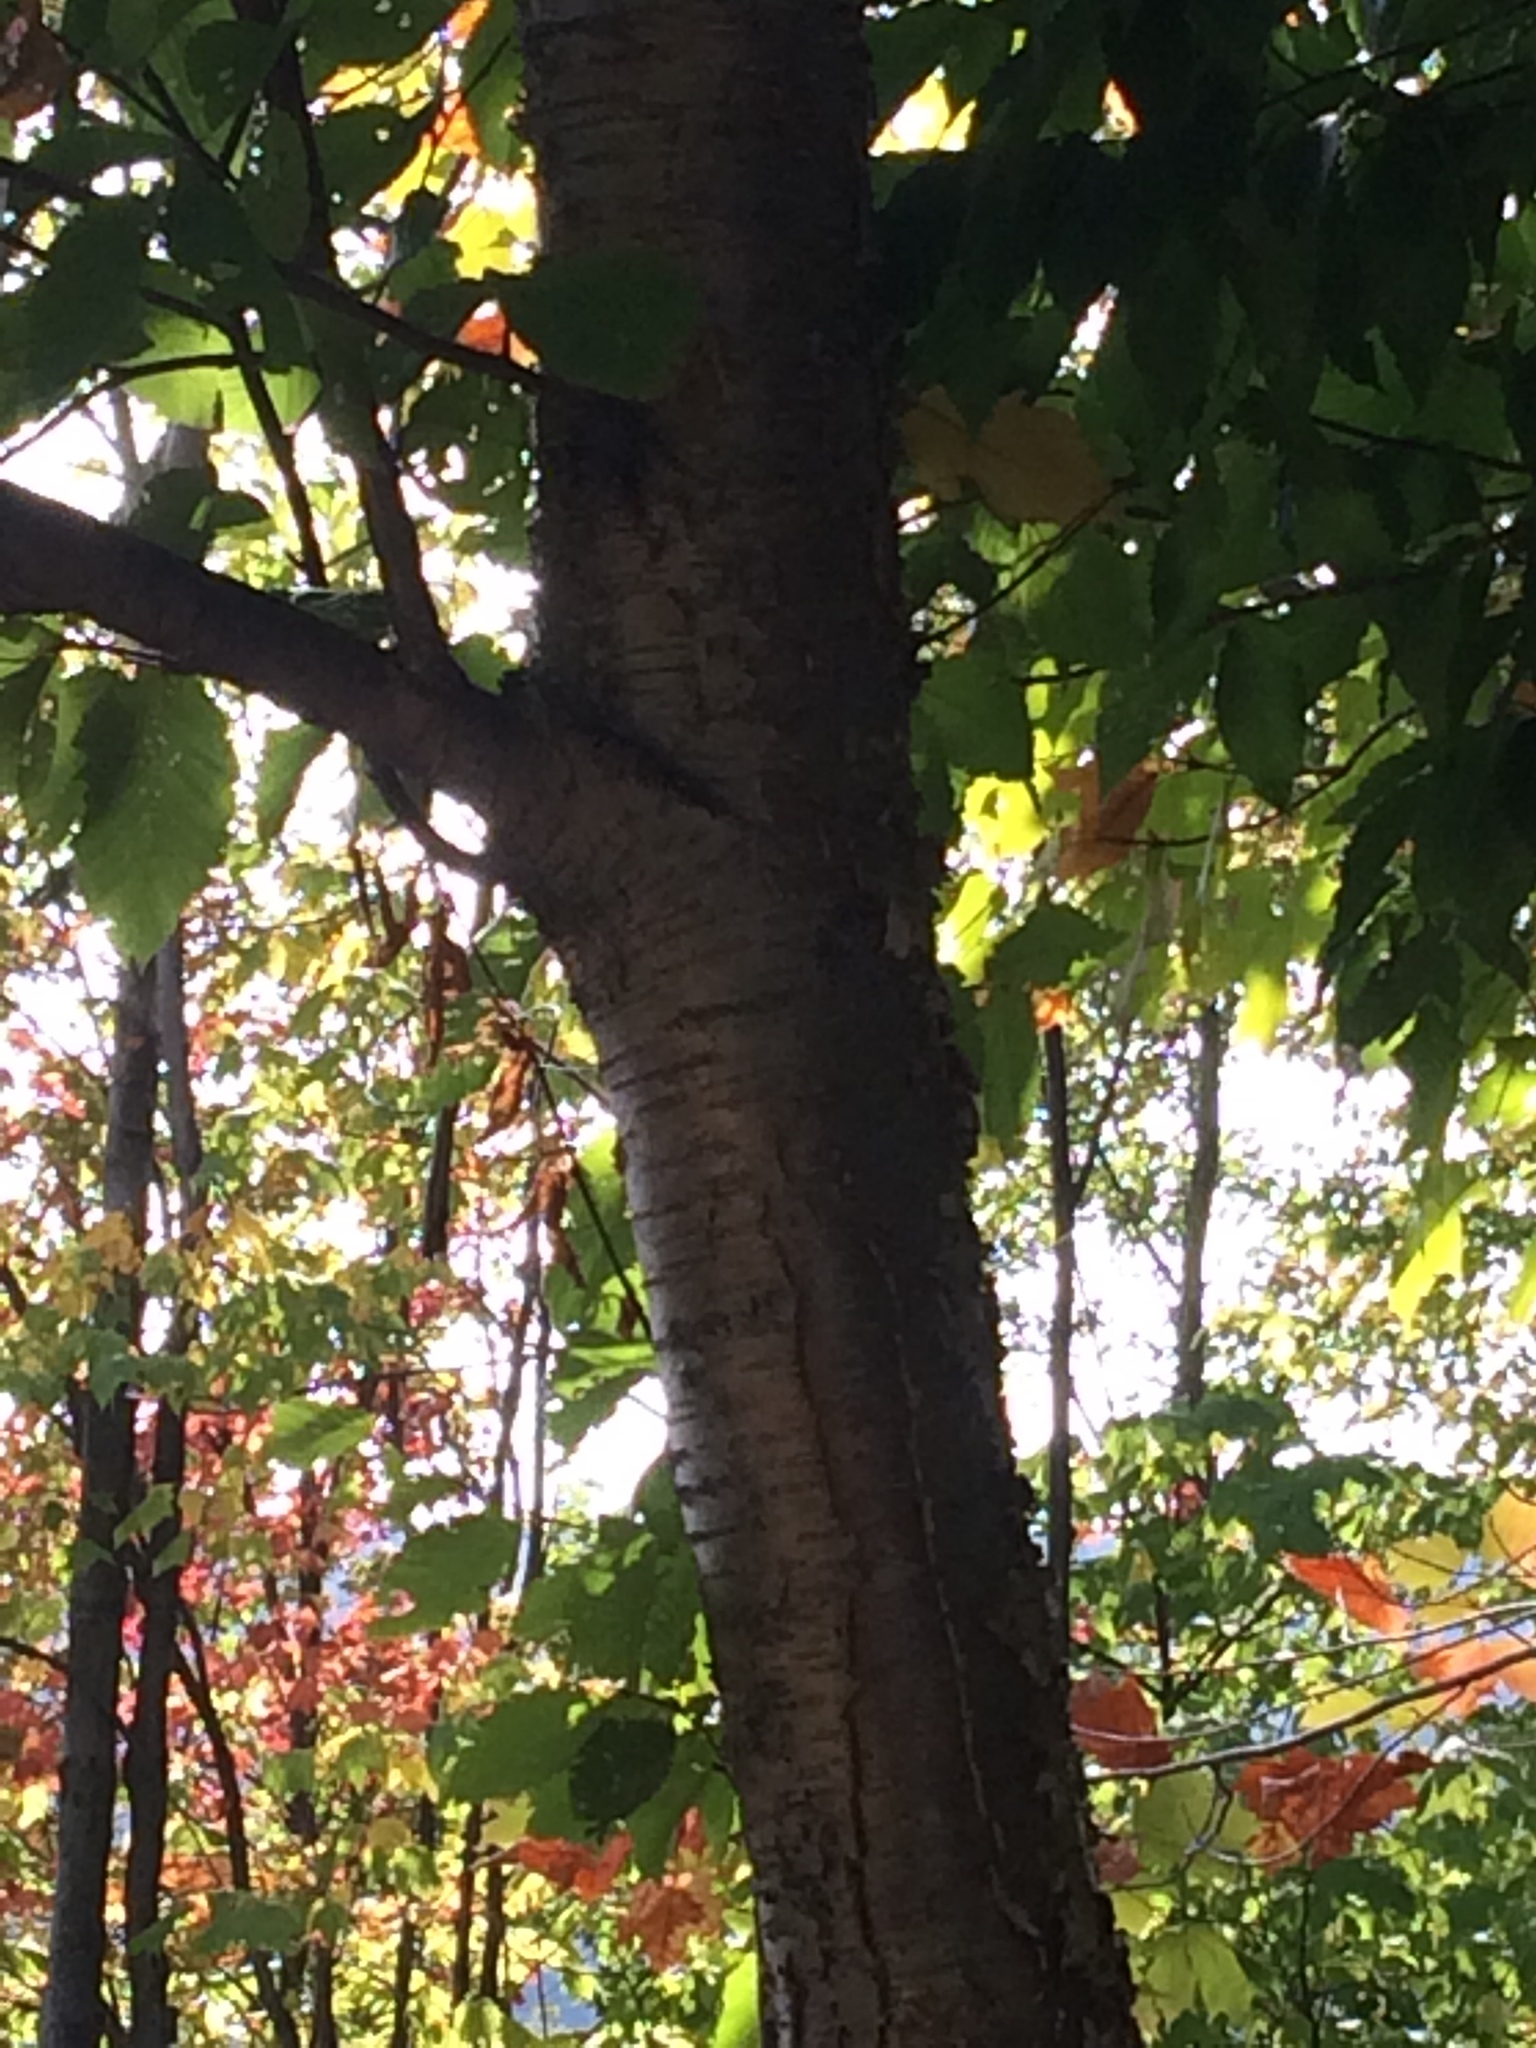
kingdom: Plantae
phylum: Tracheophyta
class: Magnoliopsida
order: Fagales
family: Betulaceae
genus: Betula
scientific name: Betula alleghaniensis
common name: Yellow birch
